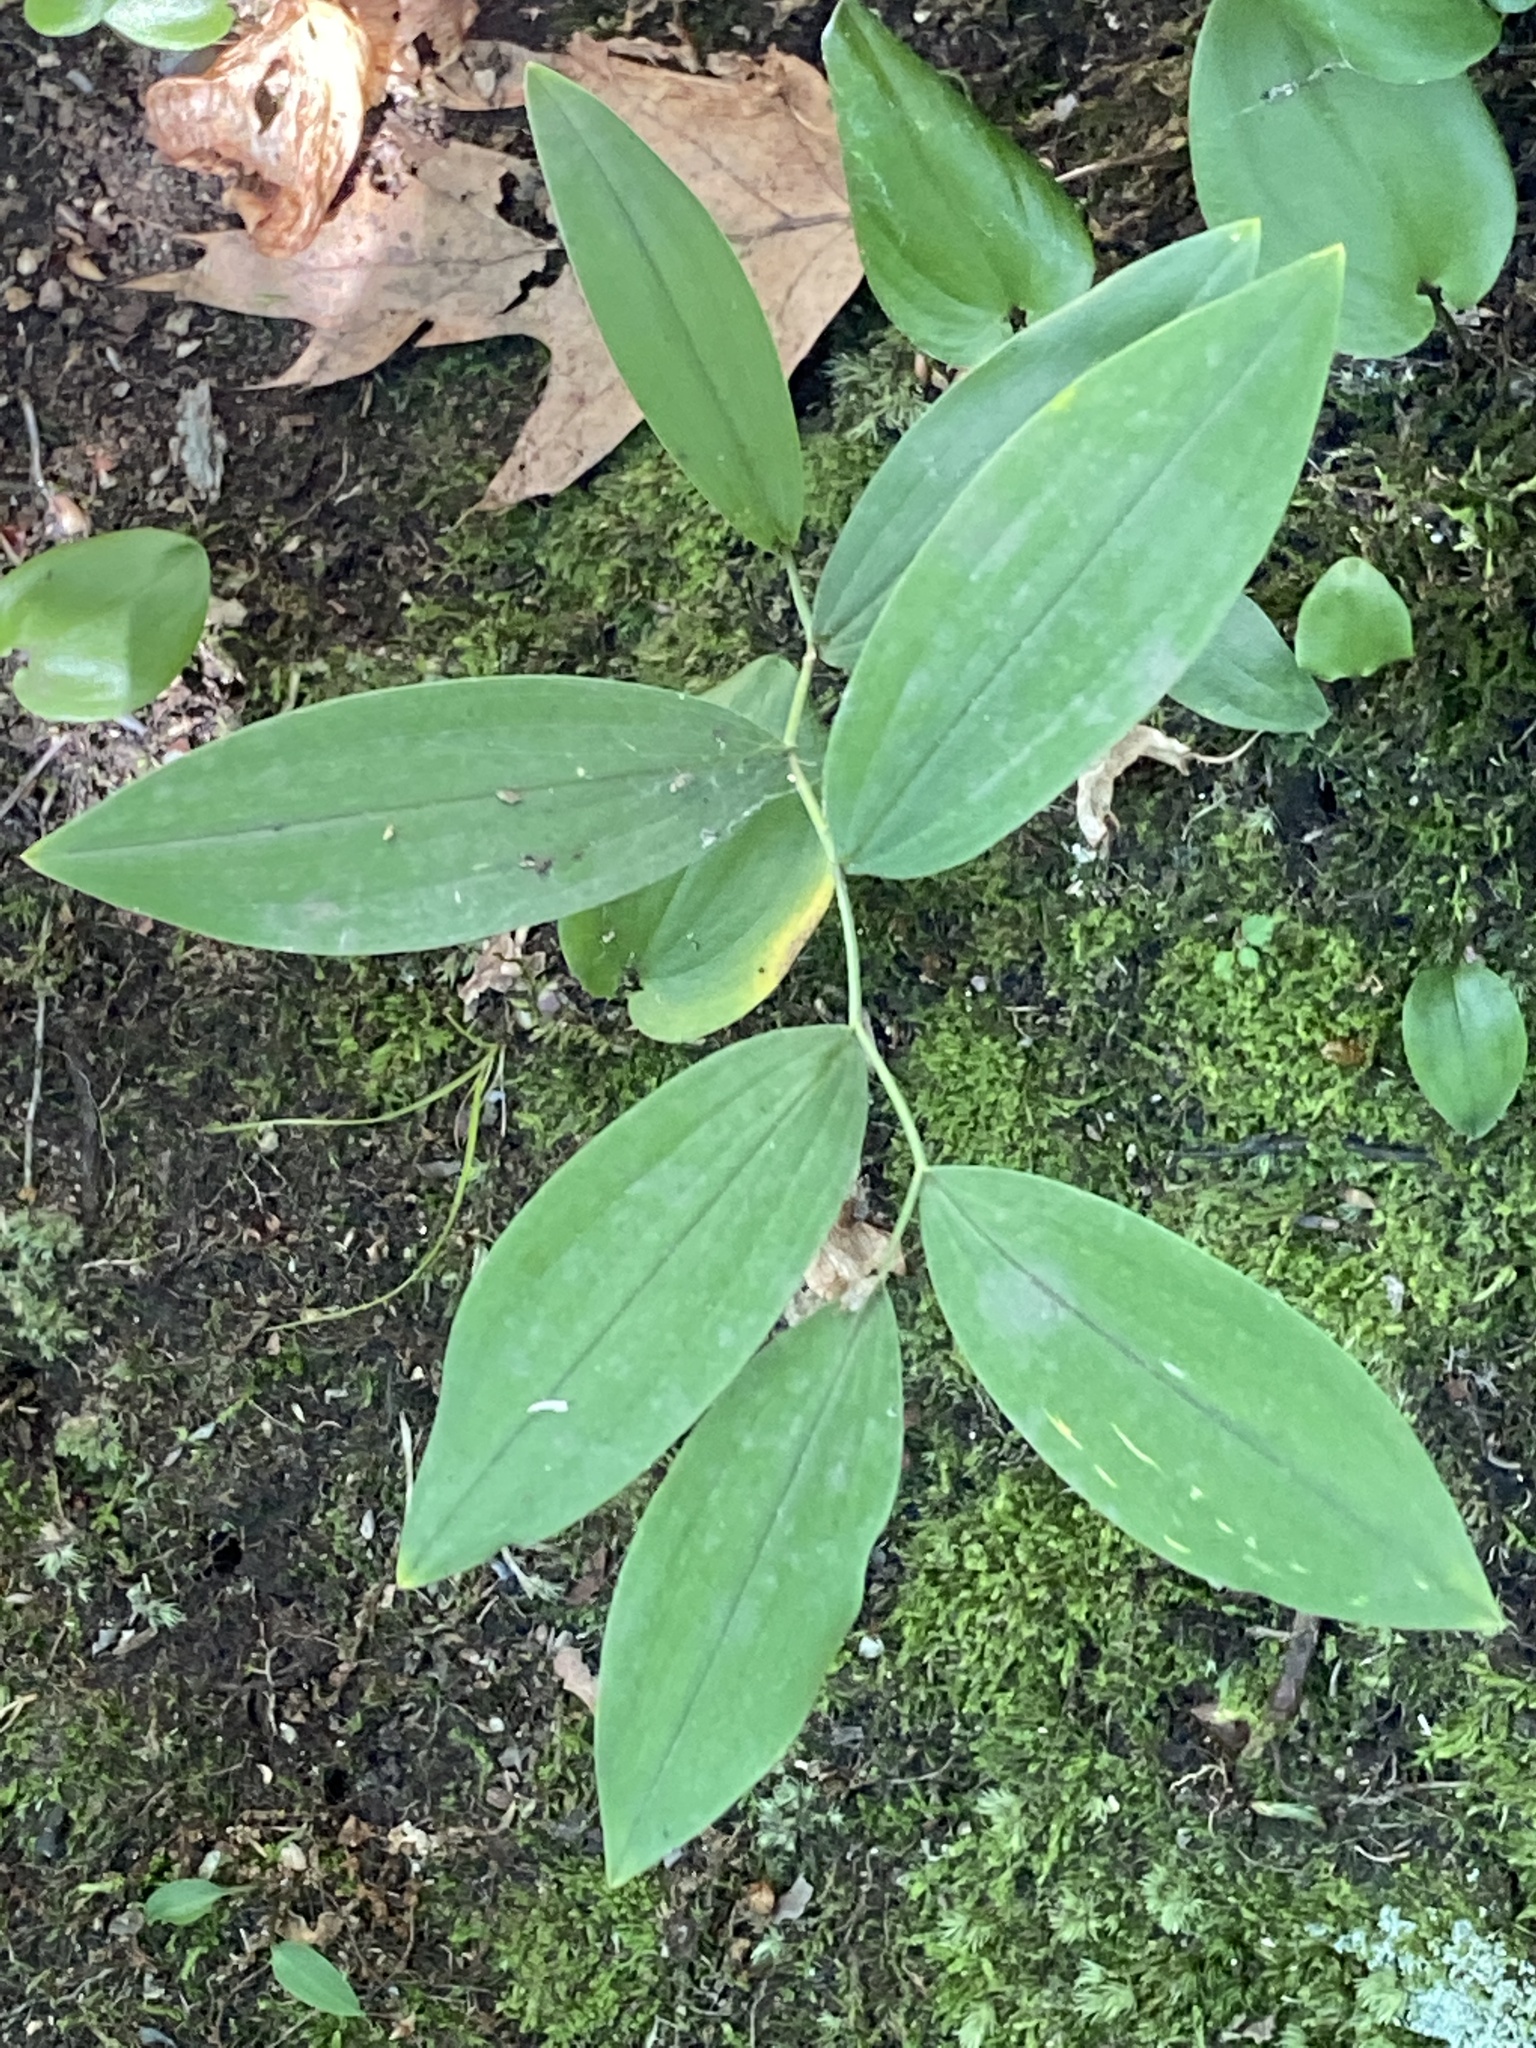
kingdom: Plantae
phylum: Tracheophyta
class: Liliopsida
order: Liliales
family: Colchicaceae
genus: Uvularia
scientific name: Uvularia sessilifolia
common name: Straw-lily
